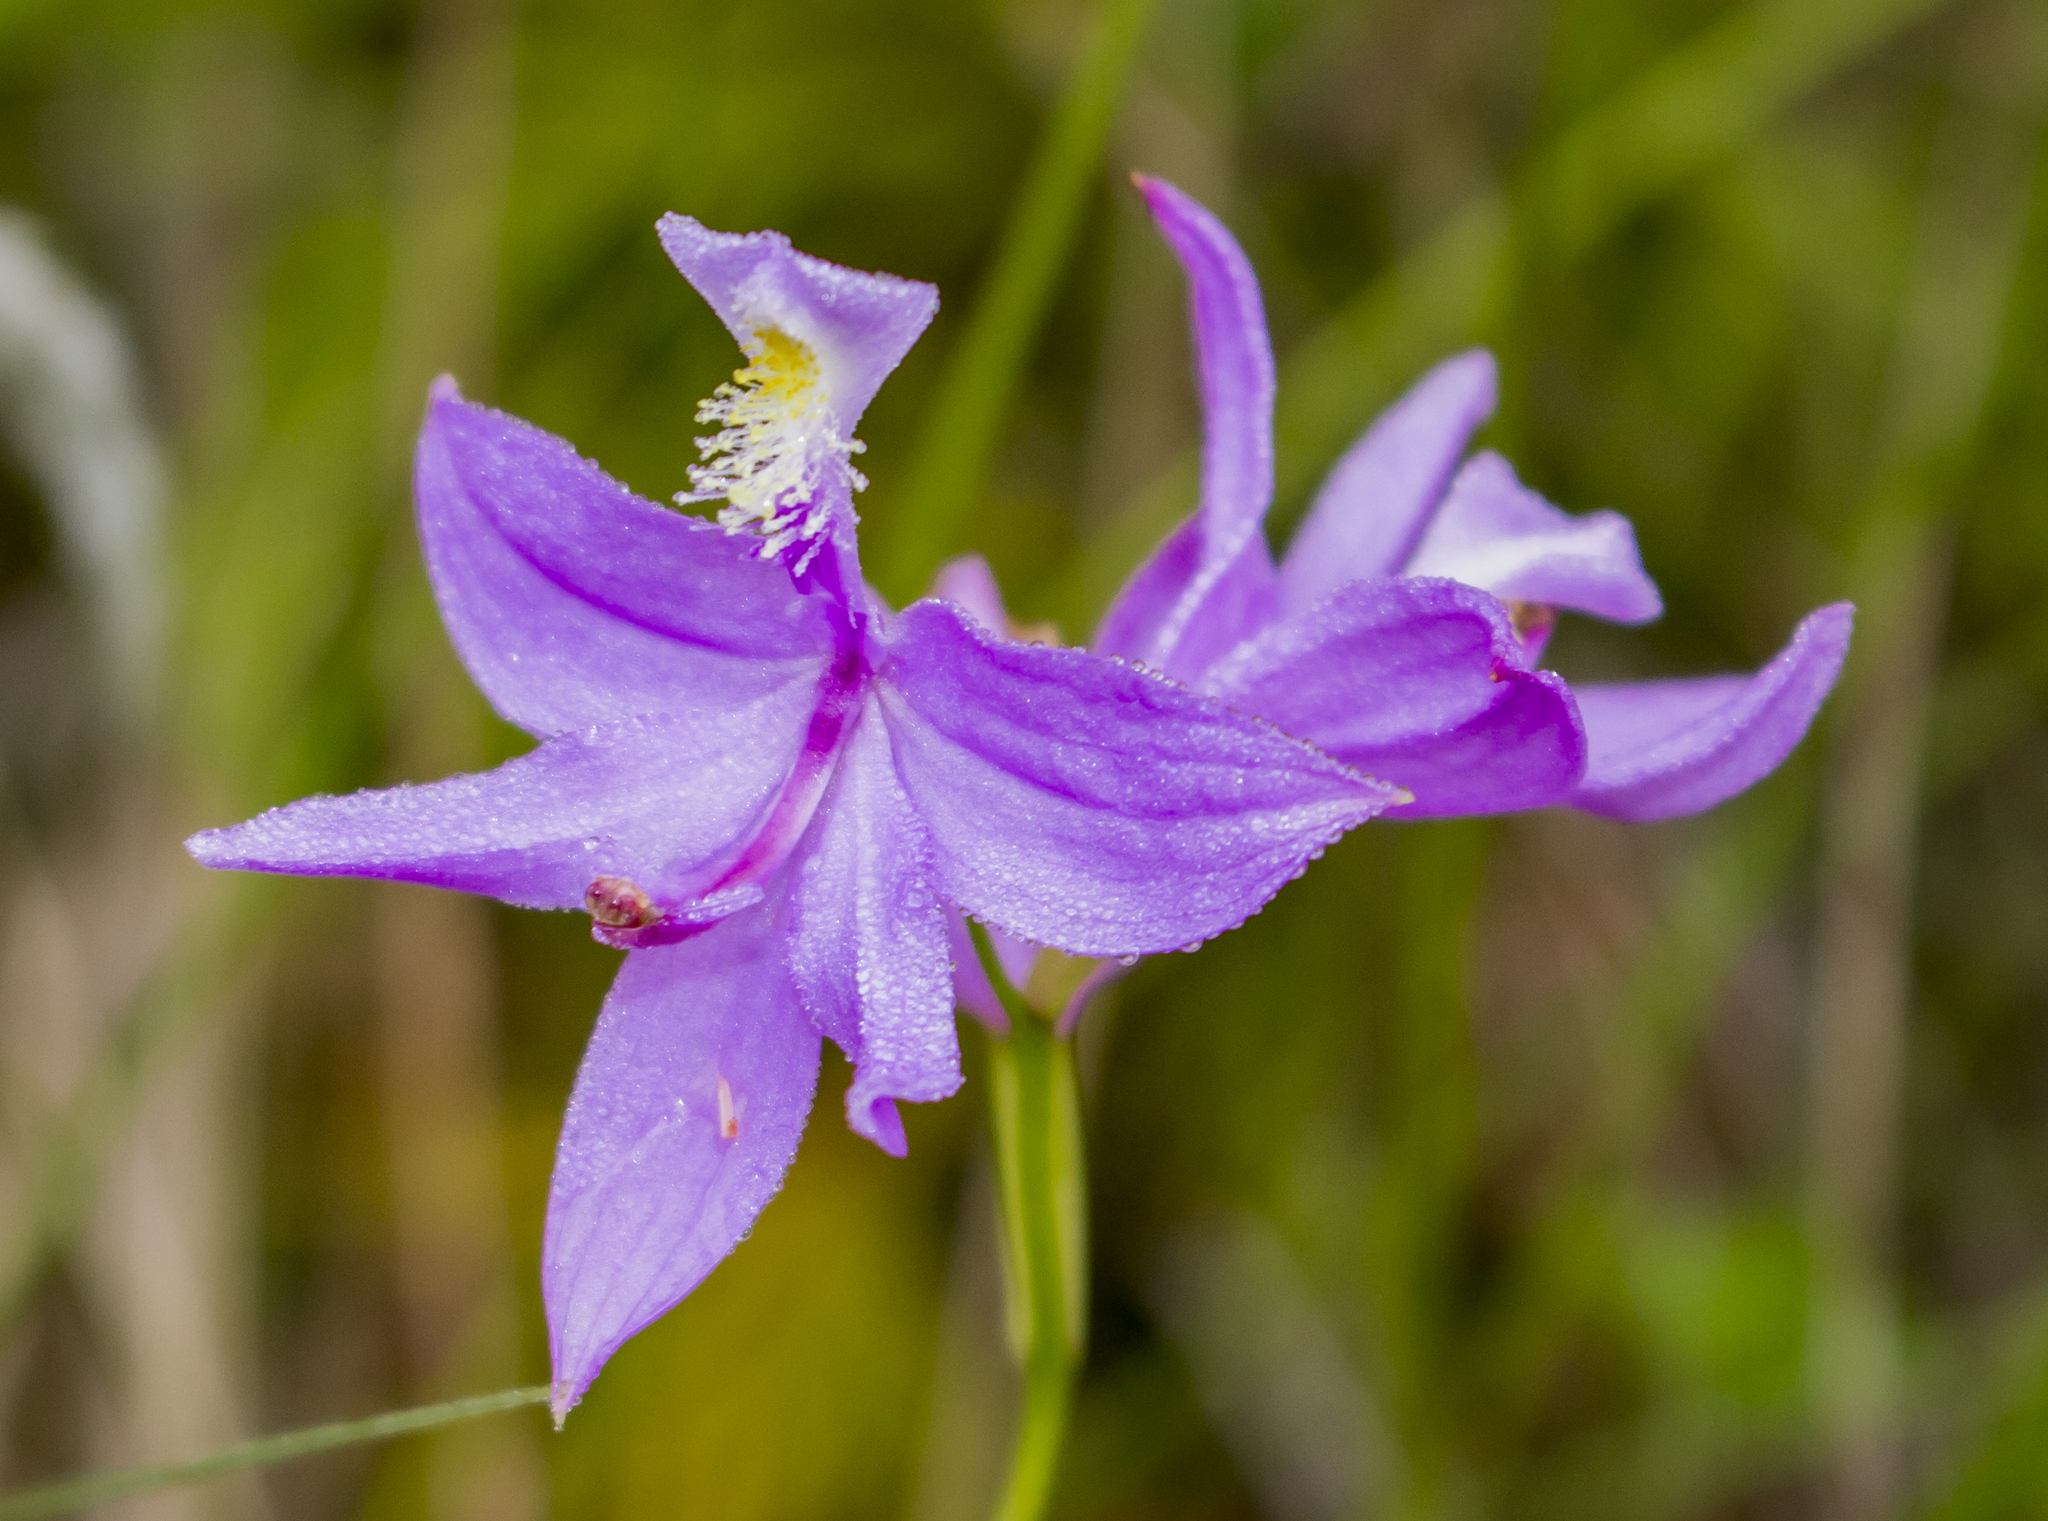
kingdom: Plantae
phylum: Tracheophyta
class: Liliopsida
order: Asparagales
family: Orchidaceae
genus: Calopogon
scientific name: Calopogon tuberosus
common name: Grass-pink
